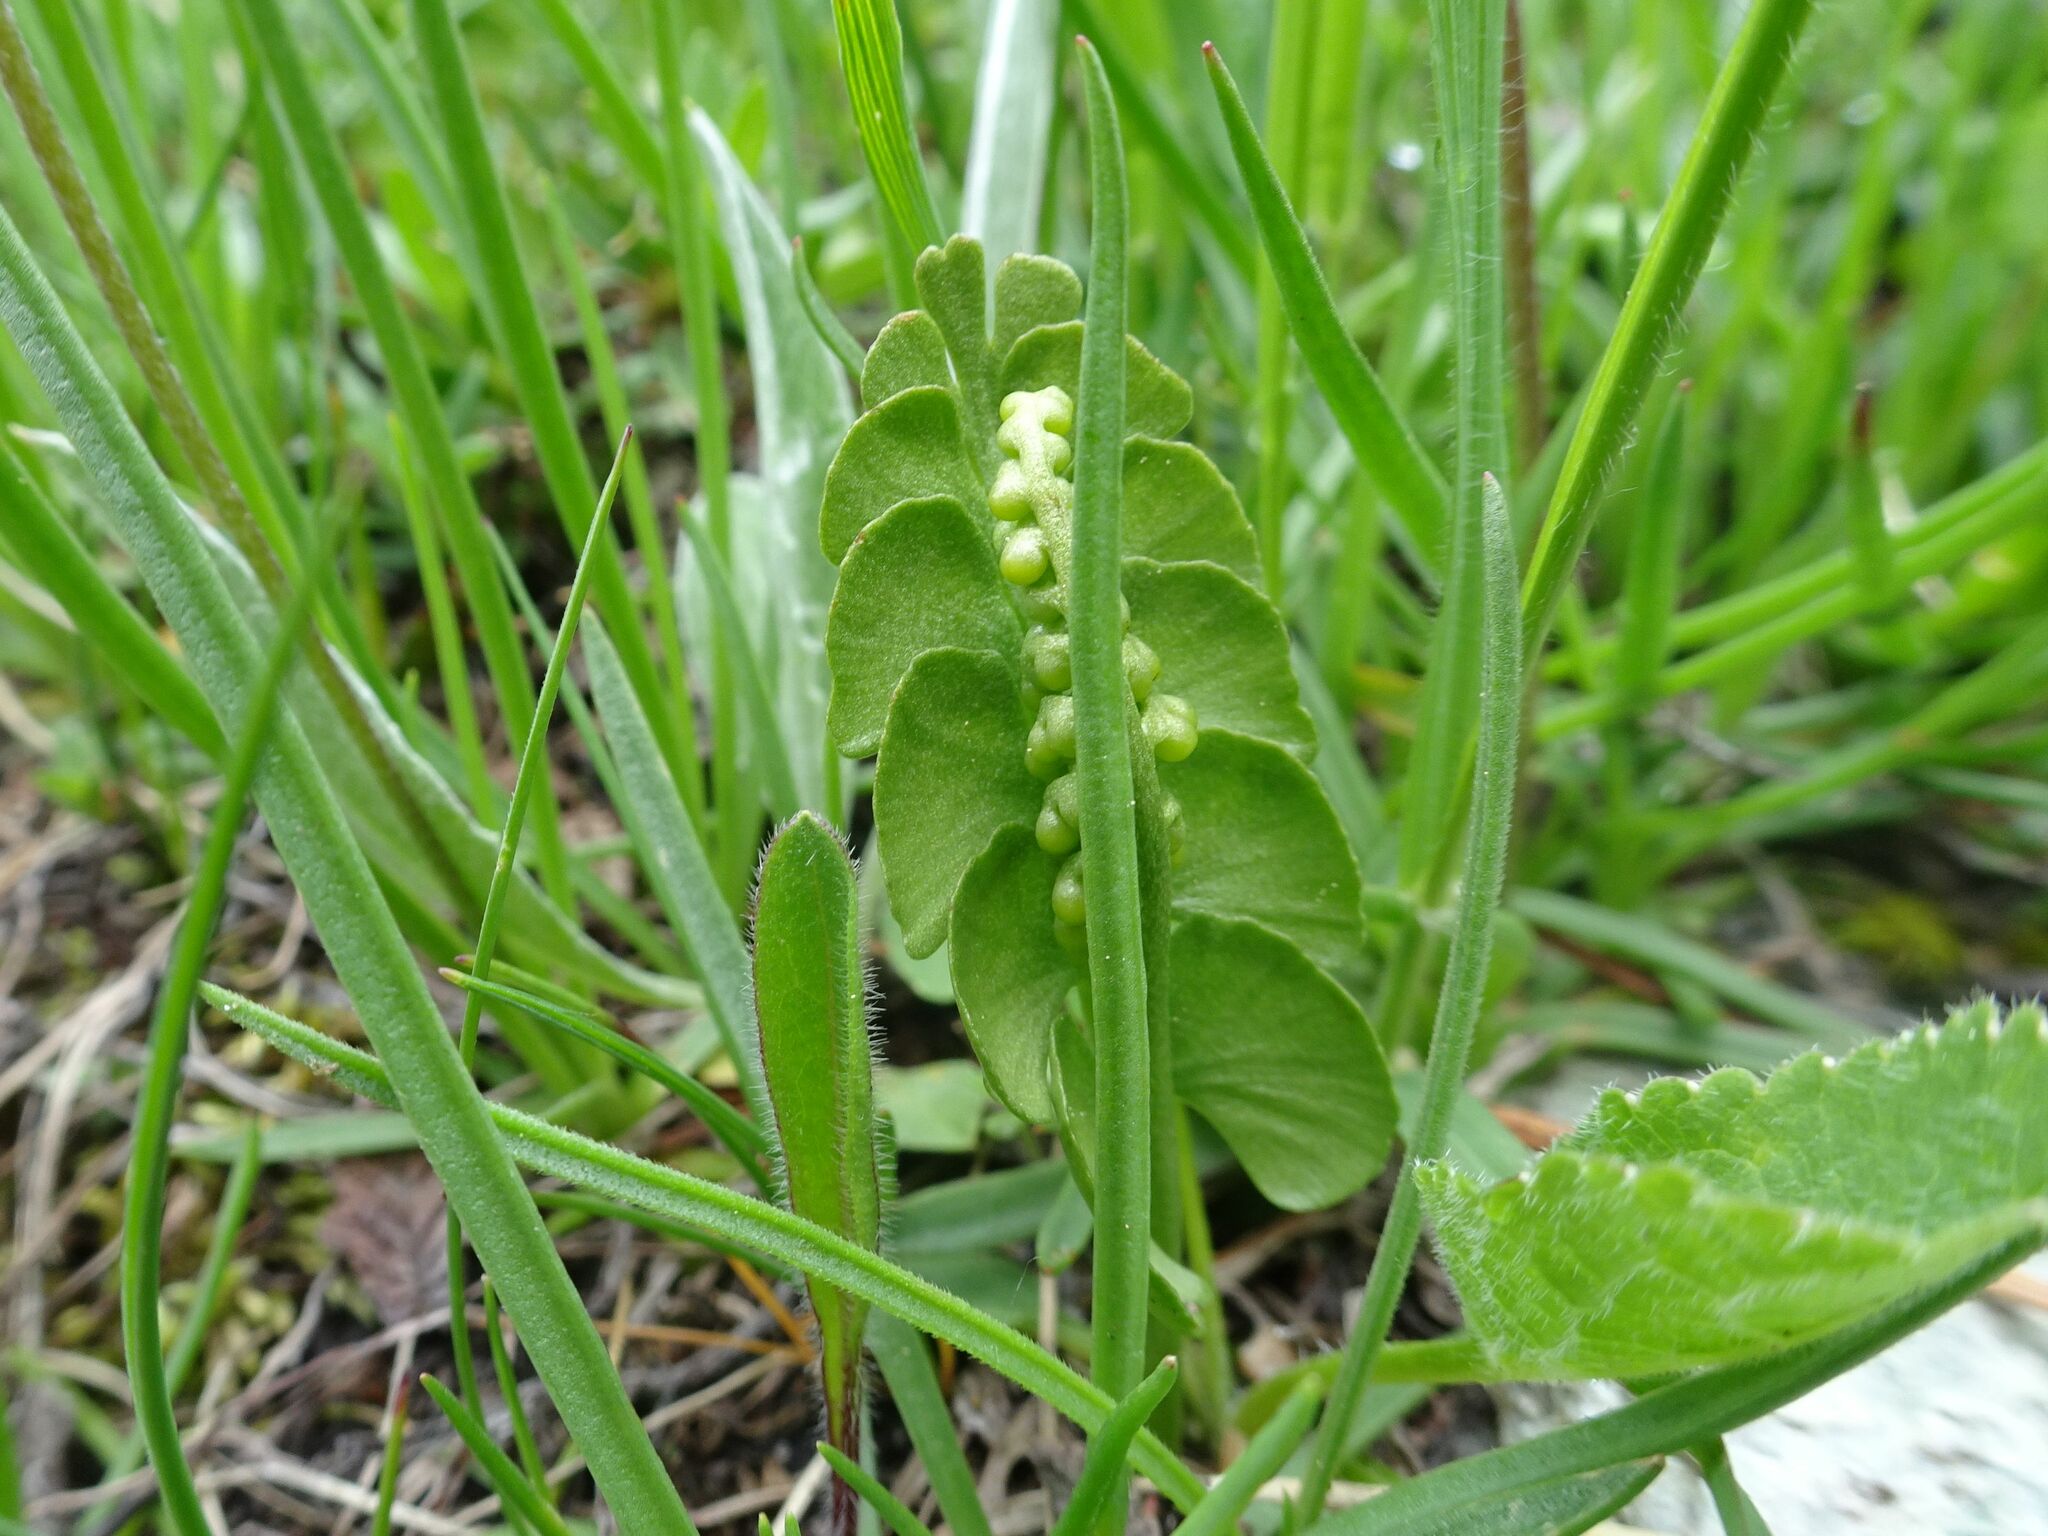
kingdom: Plantae
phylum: Tracheophyta
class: Polypodiopsida
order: Ophioglossales
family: Ophioglossaceae
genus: Botrychium
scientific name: Botrychium lunaria
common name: Moonwort
